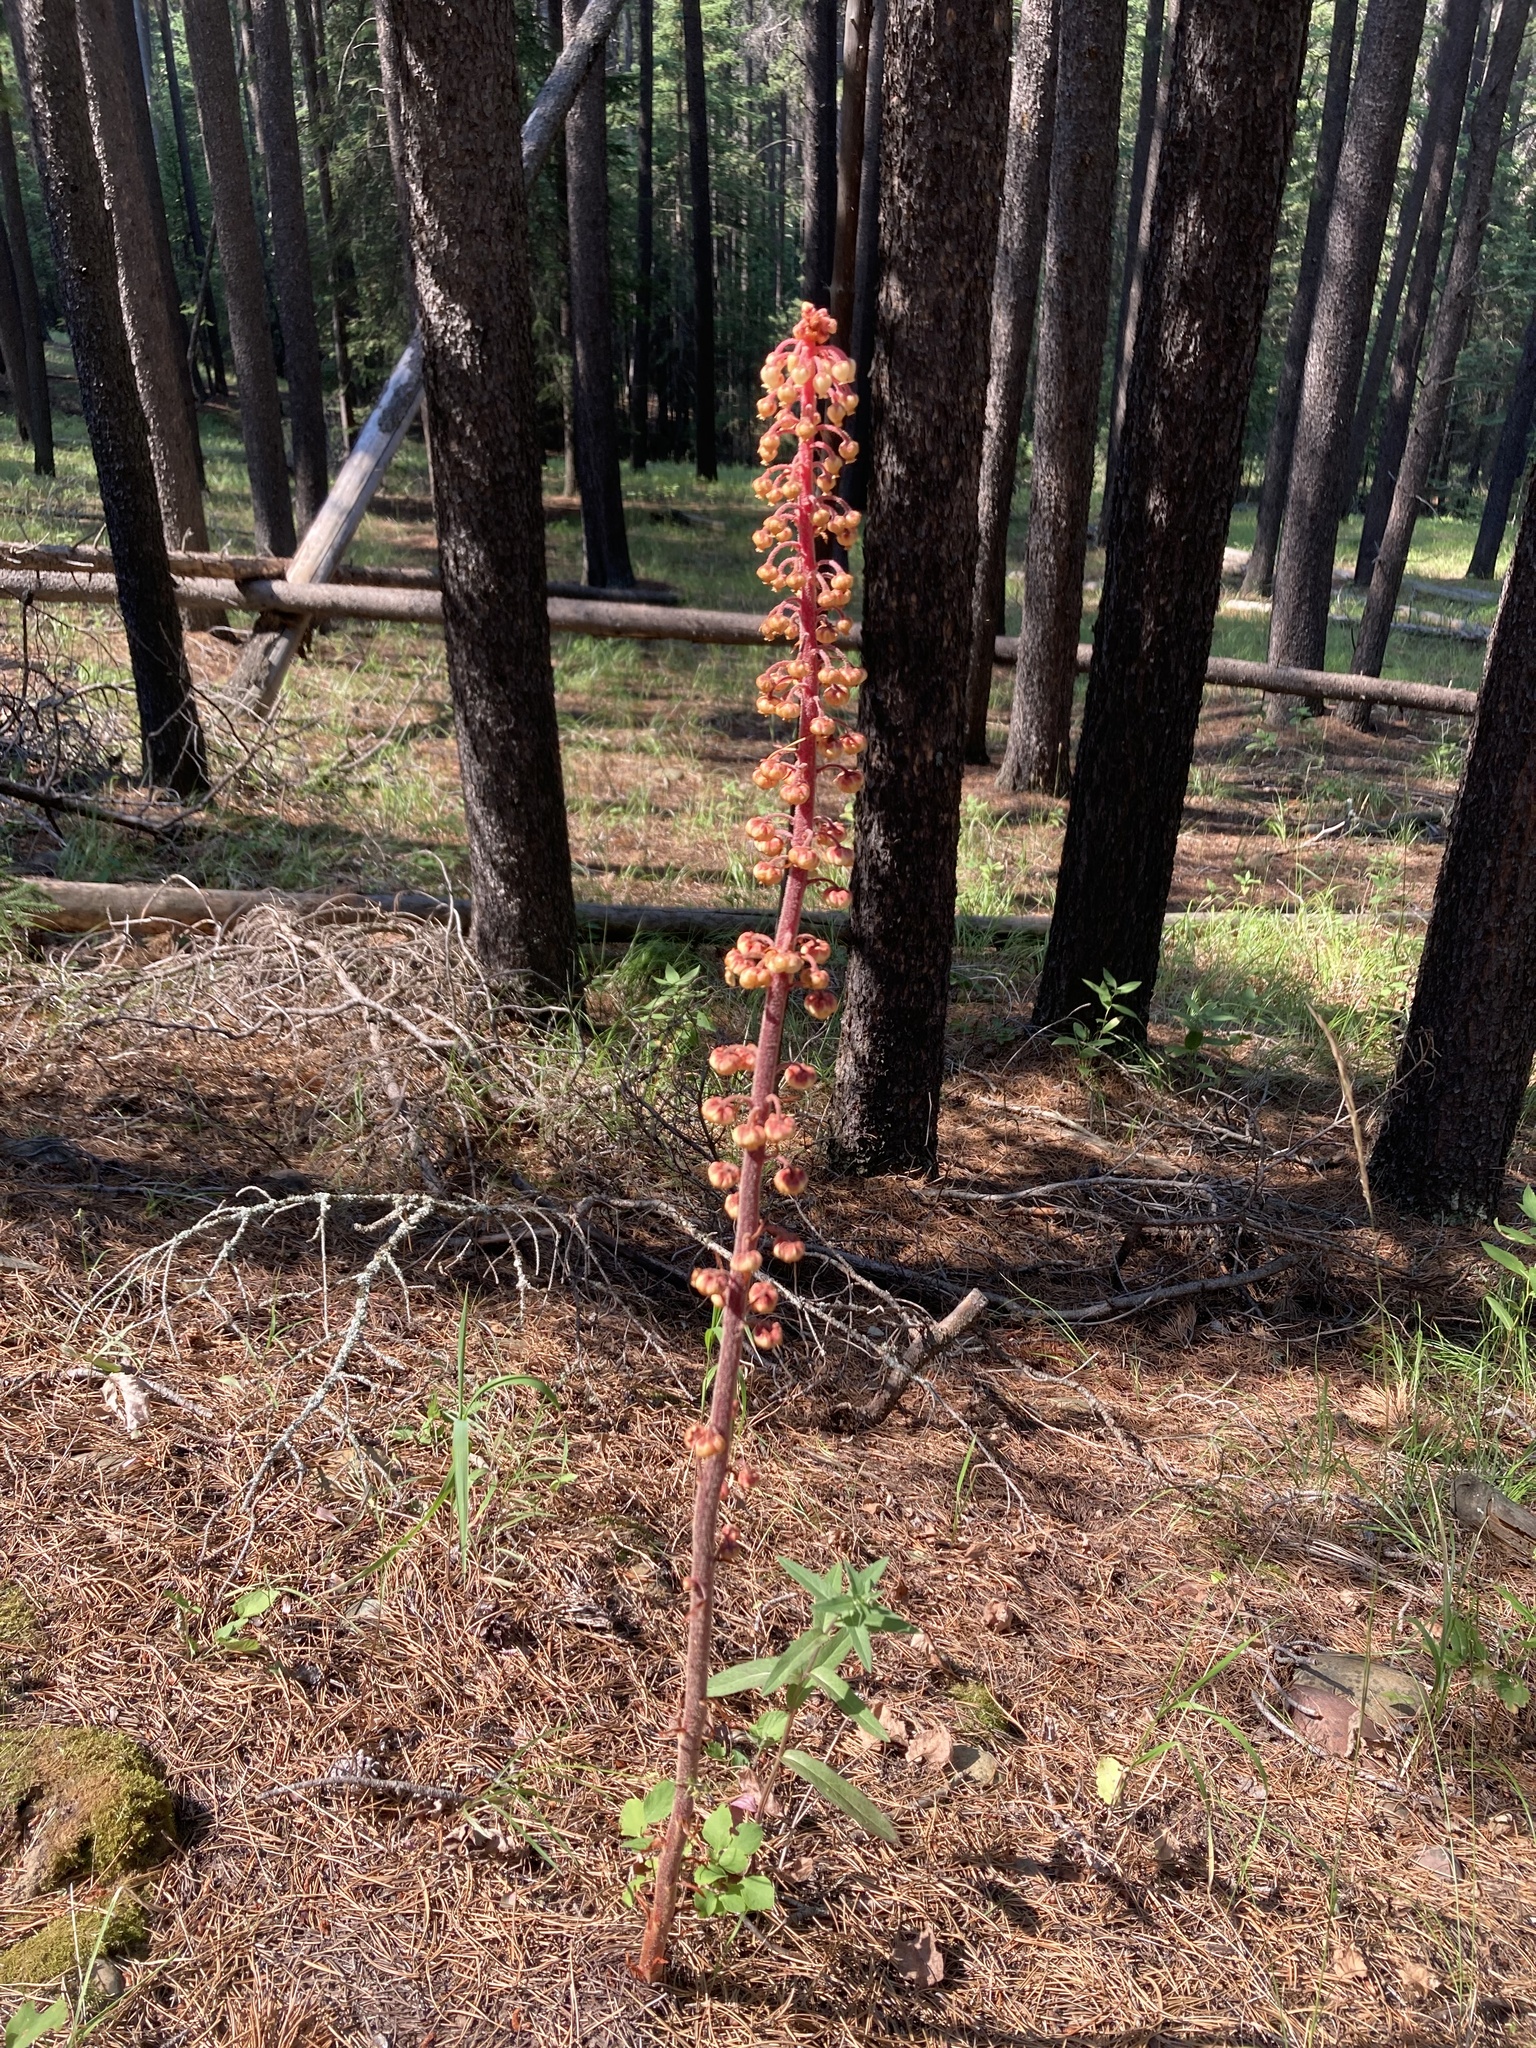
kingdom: Plantae
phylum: Tracheophyta
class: Magnoliopsida
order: Ericales
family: Ericaceae
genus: Pterospora
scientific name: Pterospora andromedea
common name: Giant bird's-nest
